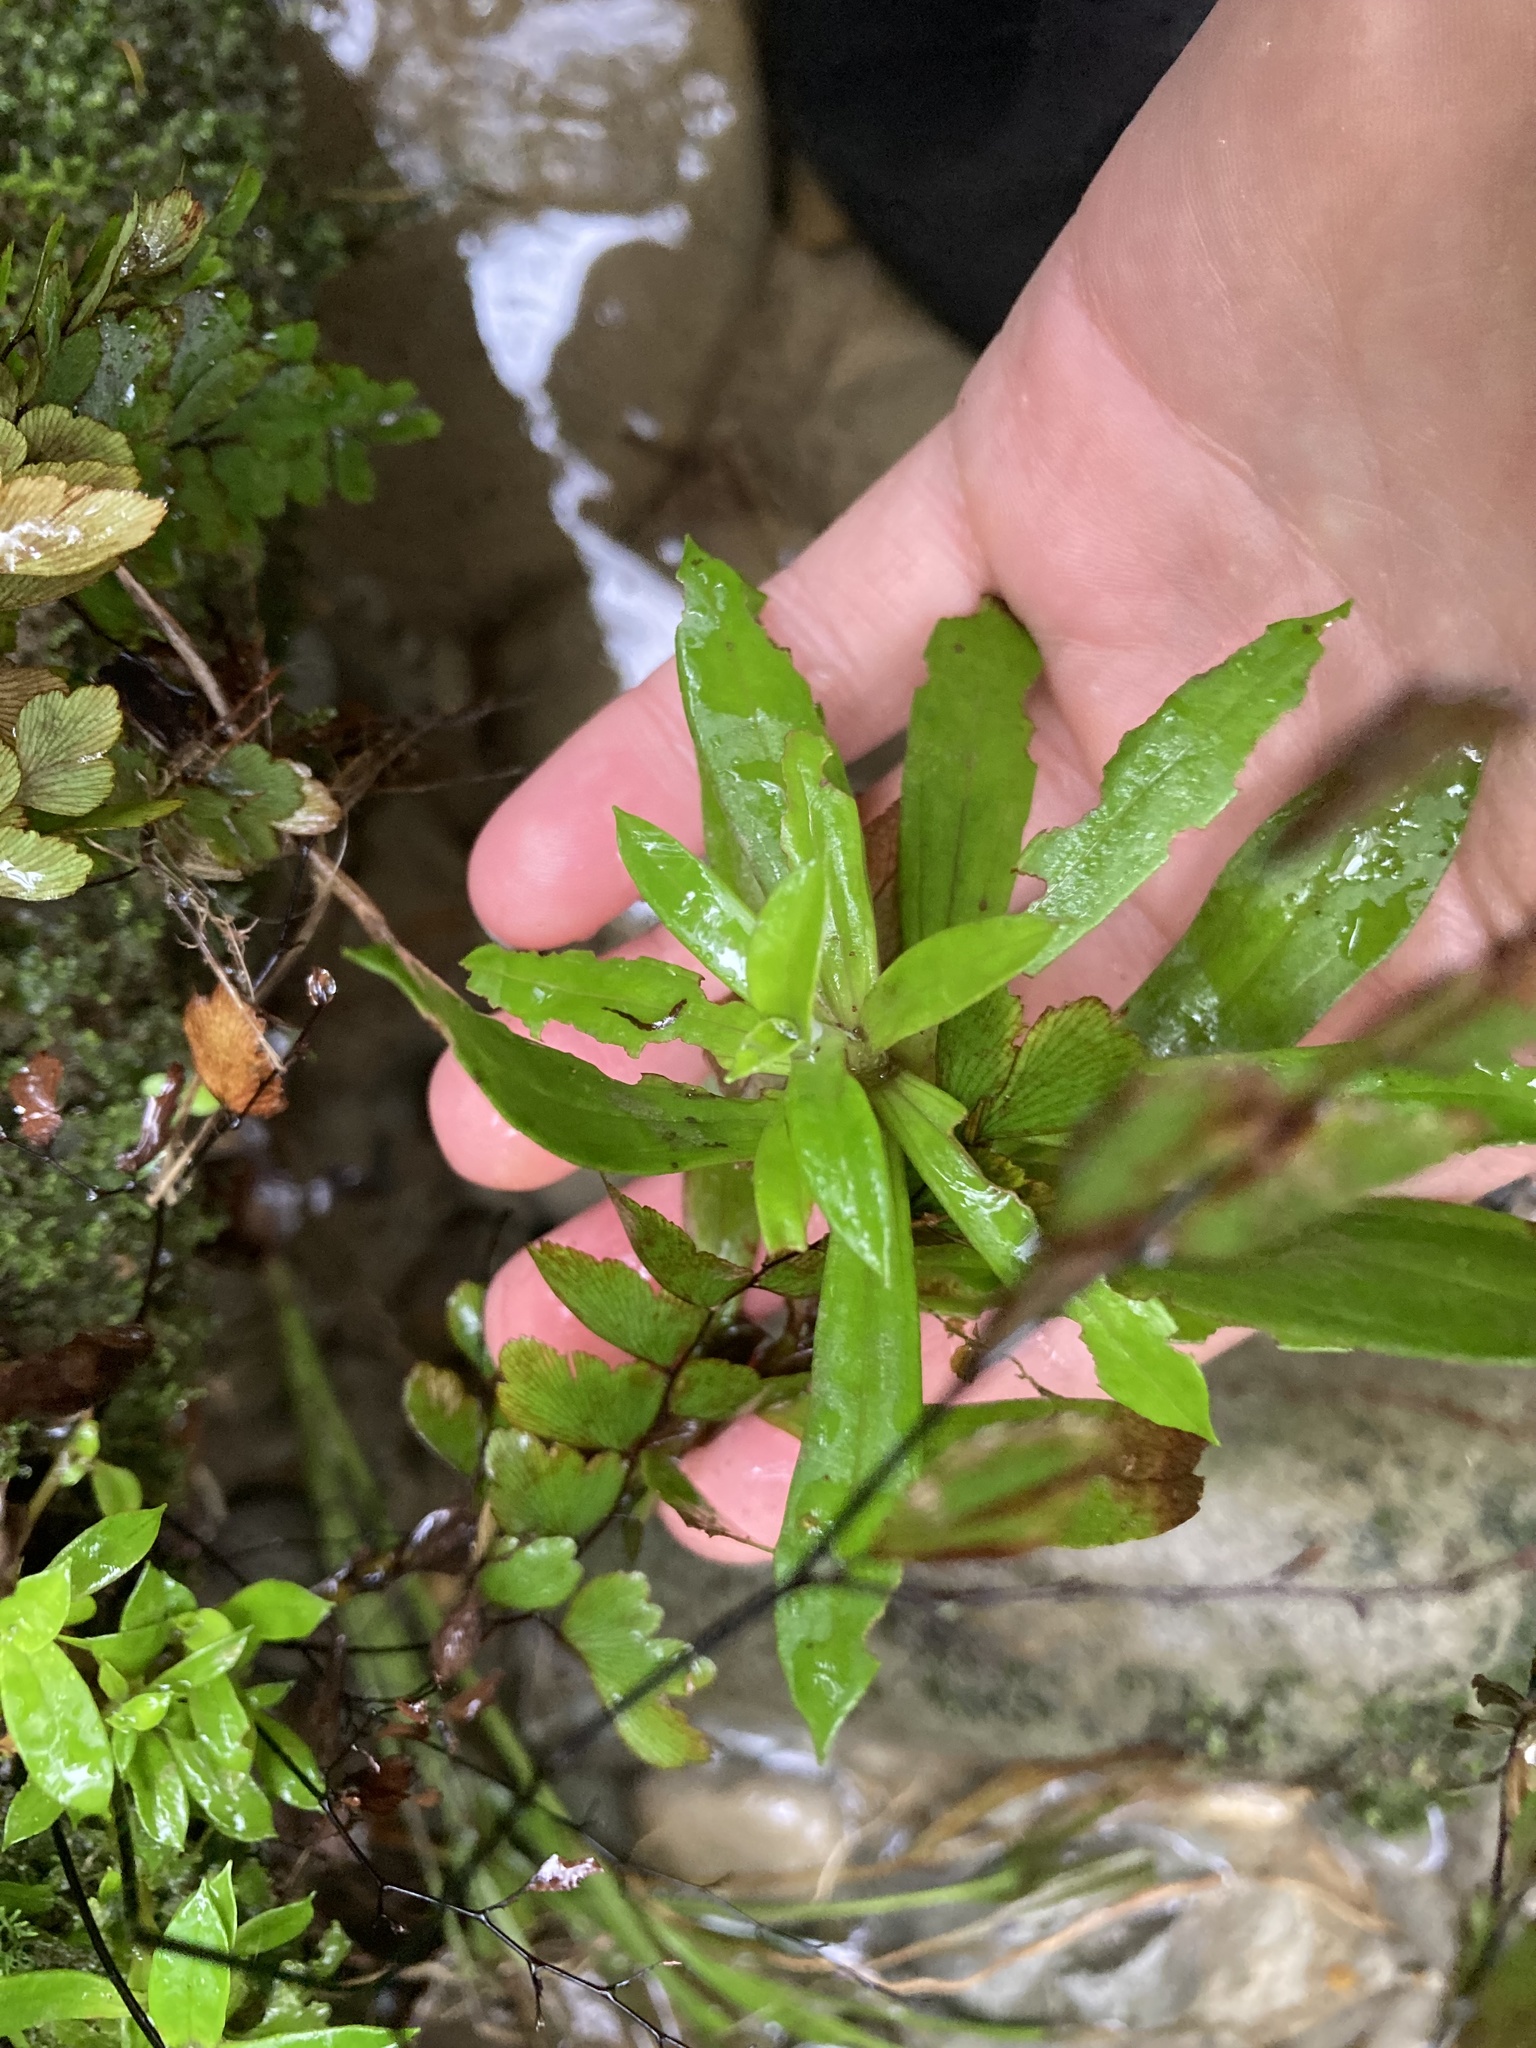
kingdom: Plantae
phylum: Tracheophyta
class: Magnoliopsida
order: Asterales
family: Asteraceae
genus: Anaphalioides
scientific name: Anaphalioides trinervis
